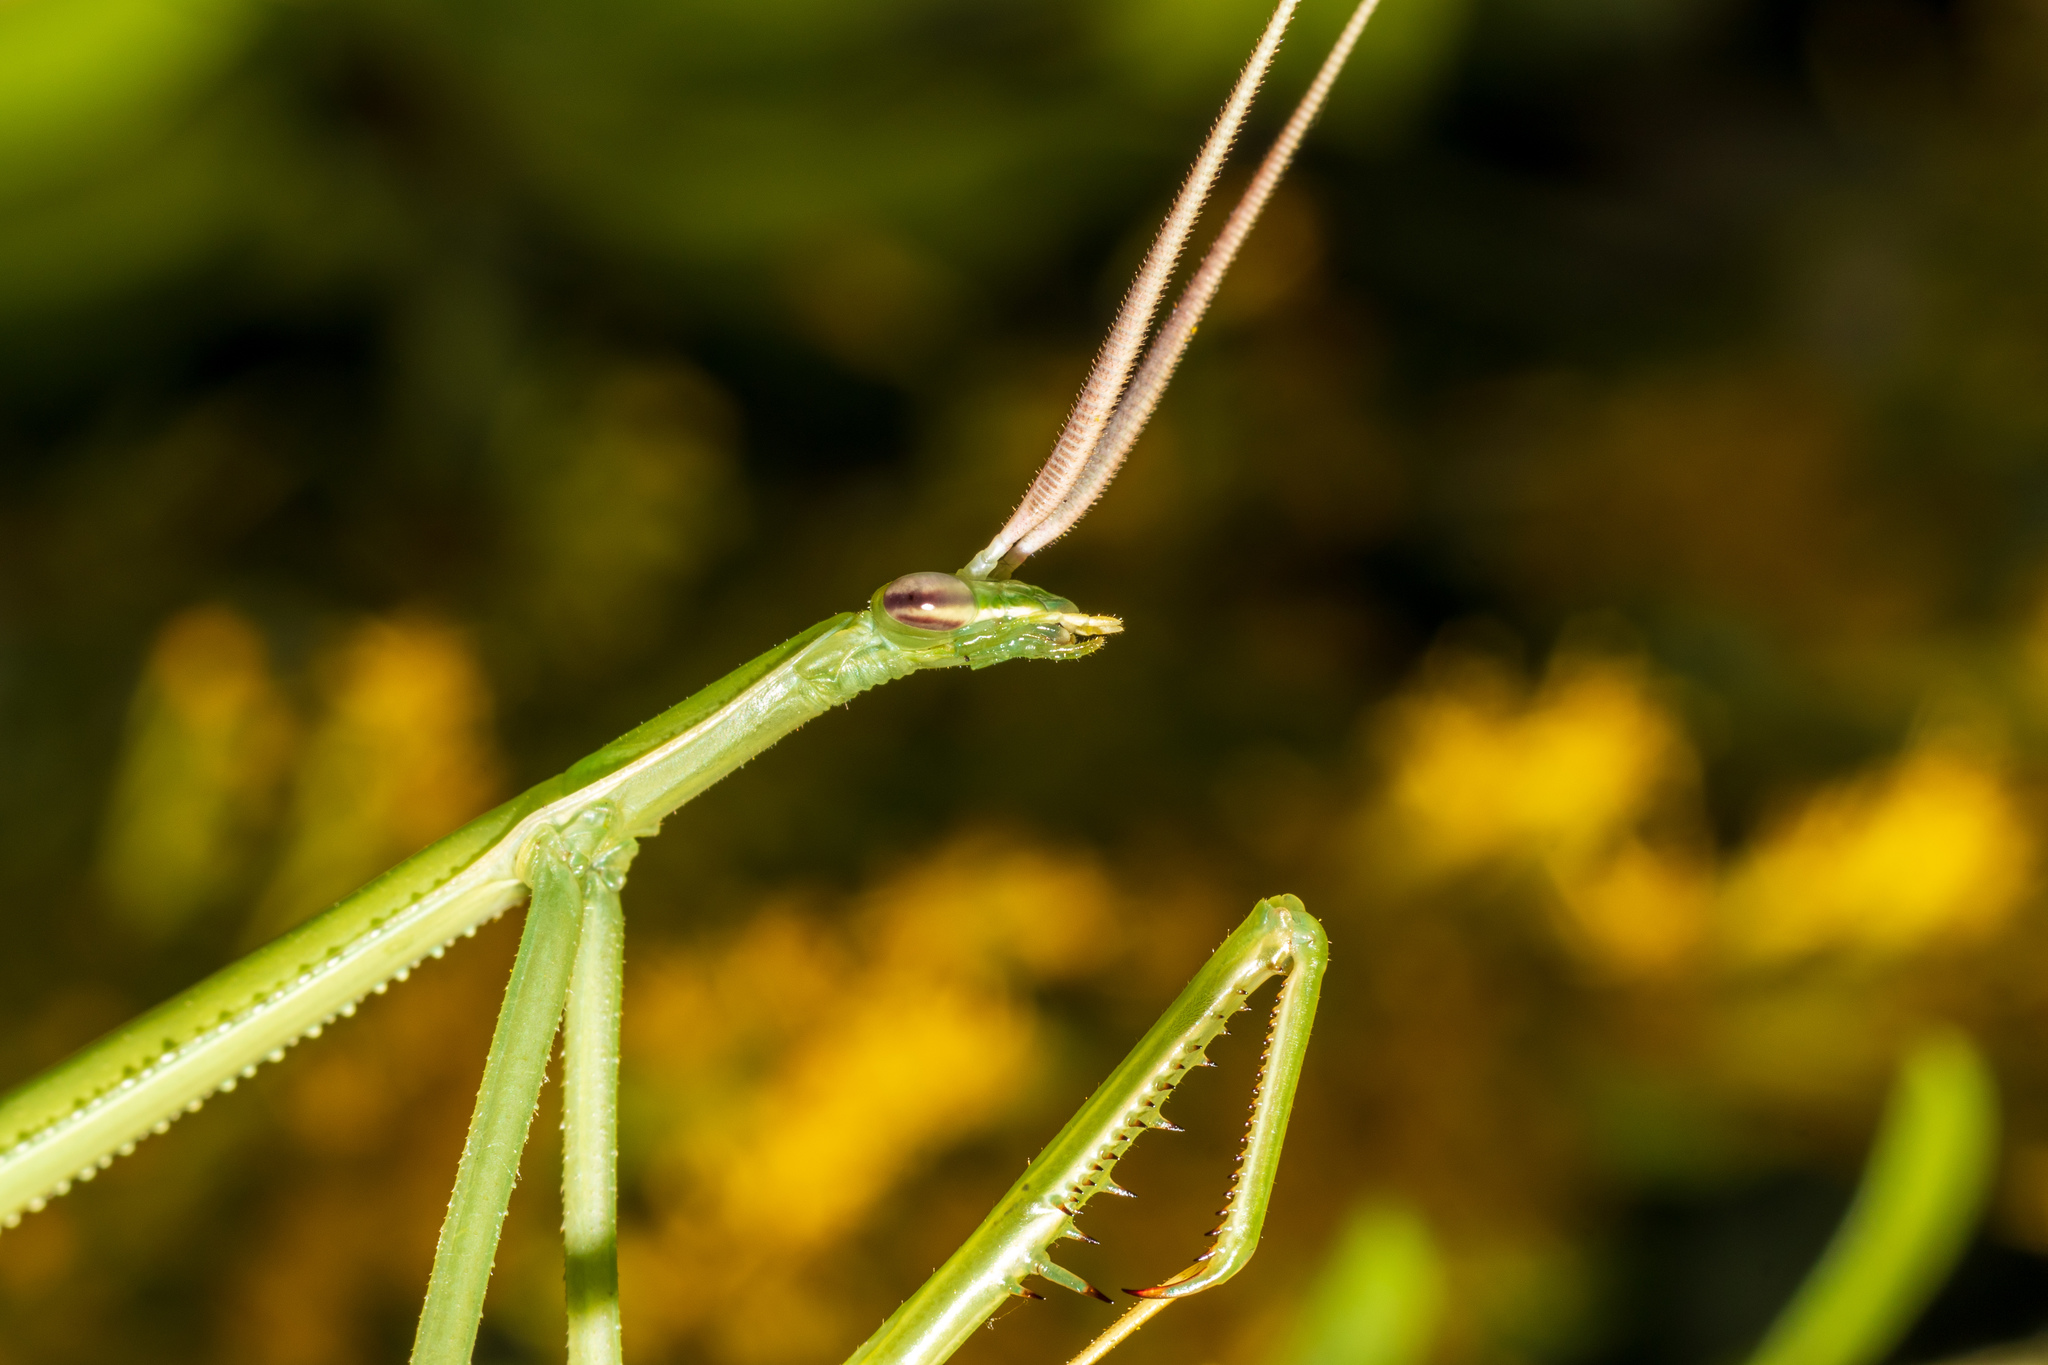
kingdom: Animalia
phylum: Arthropoda
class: Insecta
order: Mantodea
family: Coptopterygidae
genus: Brunneria
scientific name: Brunneria borealis
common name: Mantis
